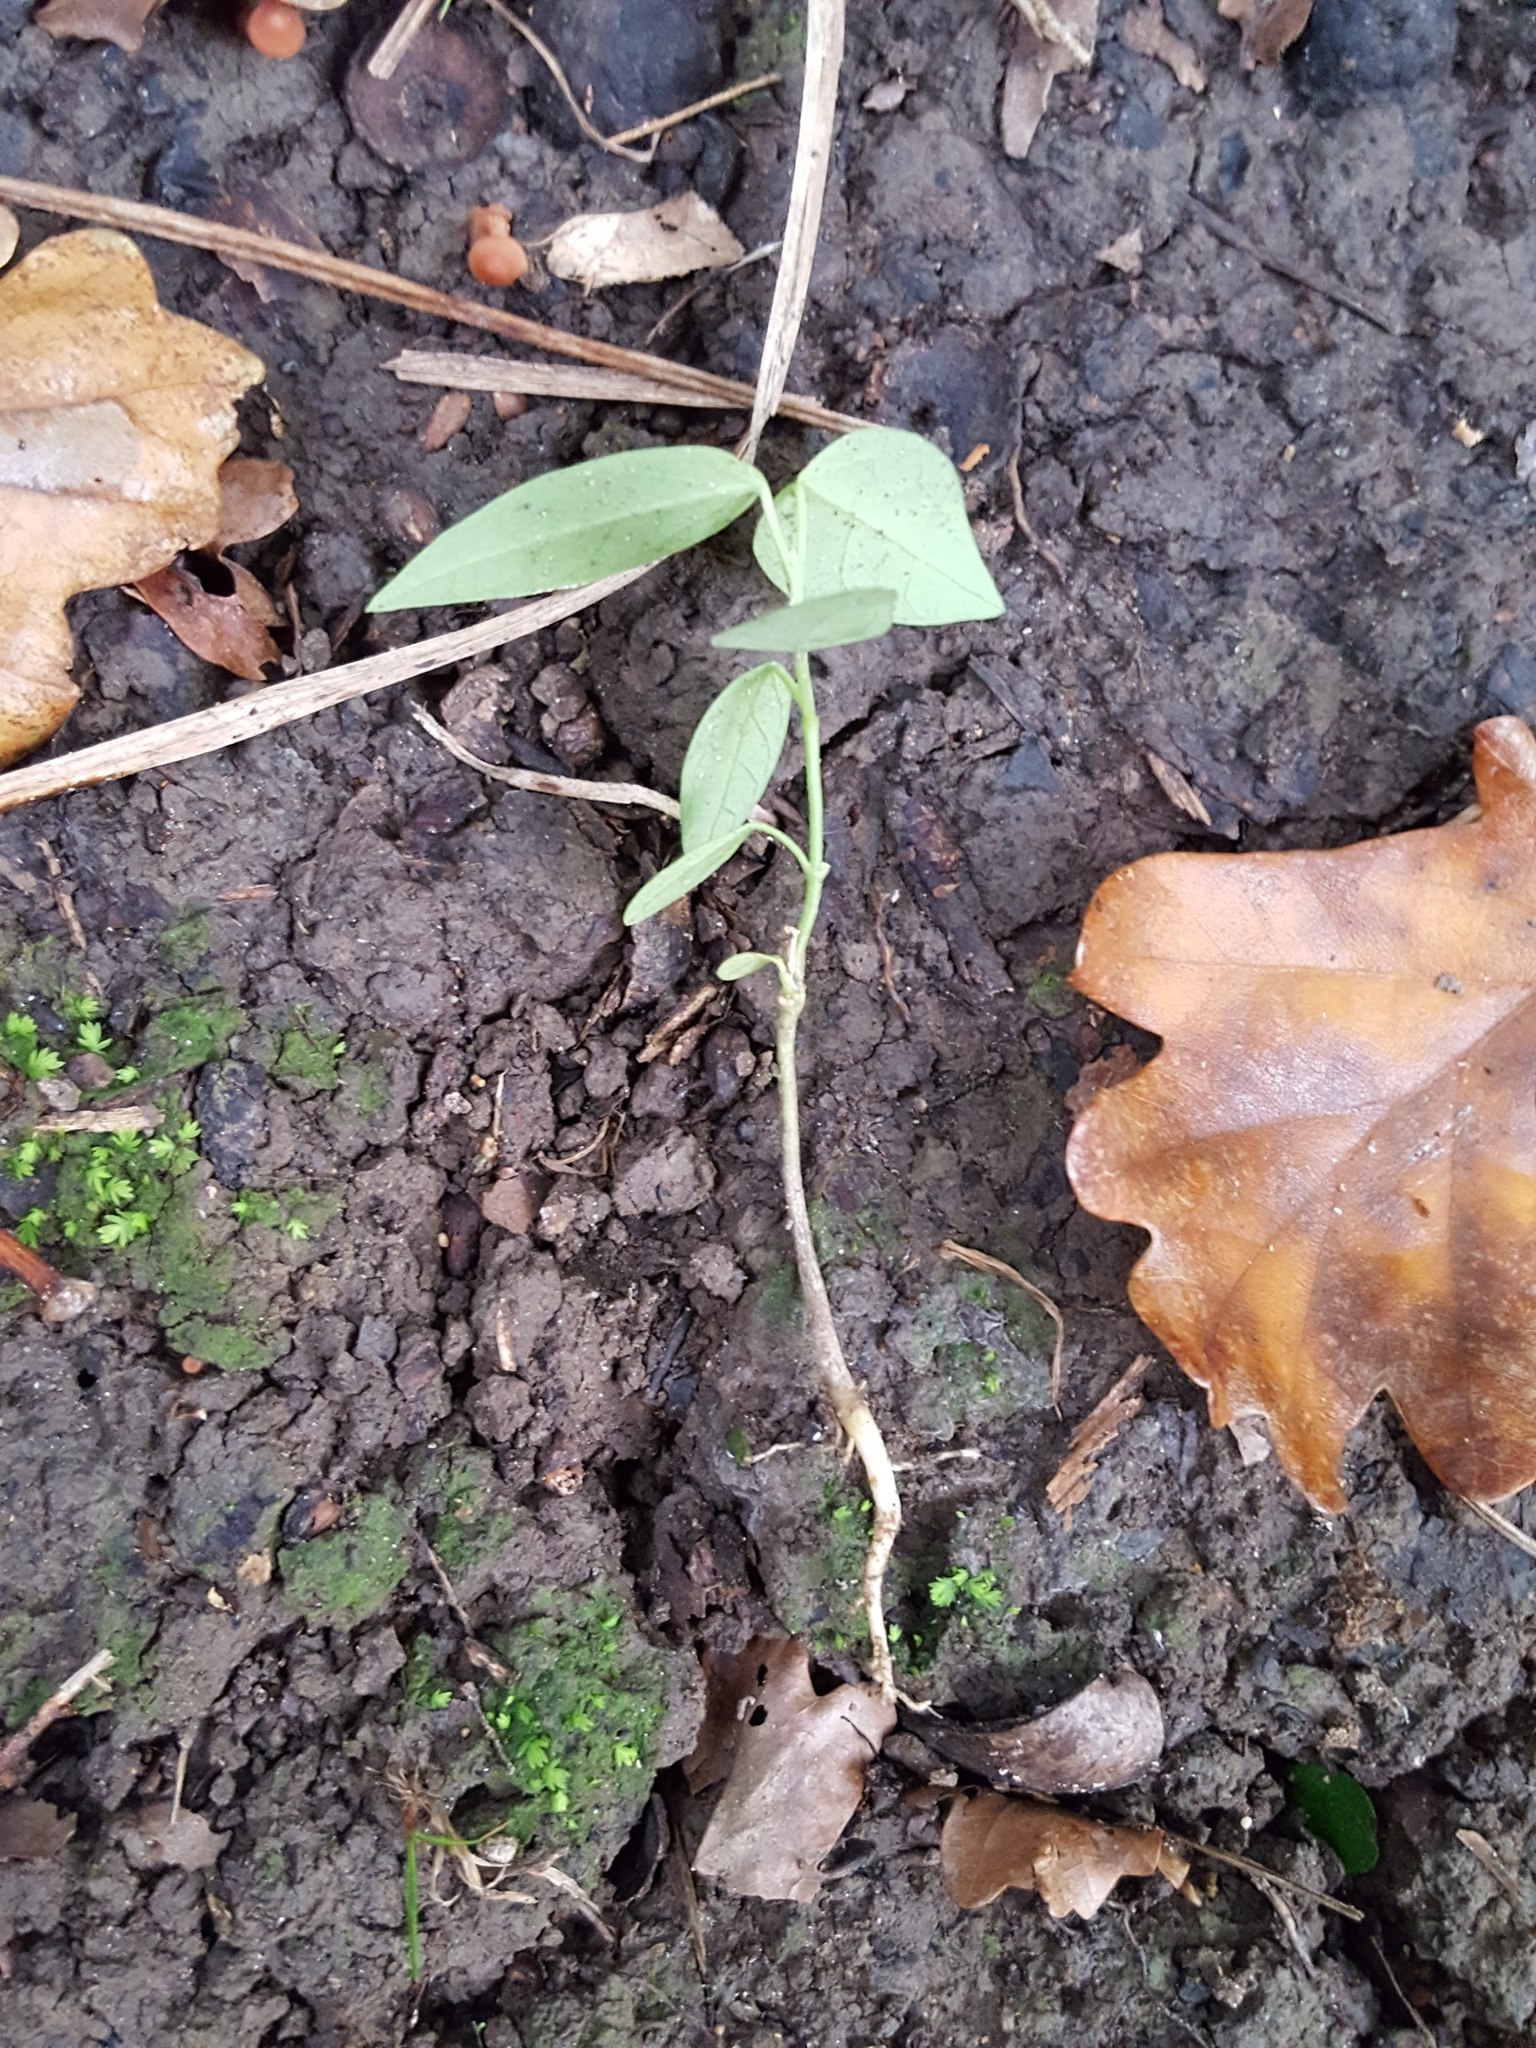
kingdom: Plantae
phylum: Tracheophyta
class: Magnoliopsida
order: Gentianales
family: Apocynaceae
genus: Araujia
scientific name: Araujia sericifera
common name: White bladderflower
